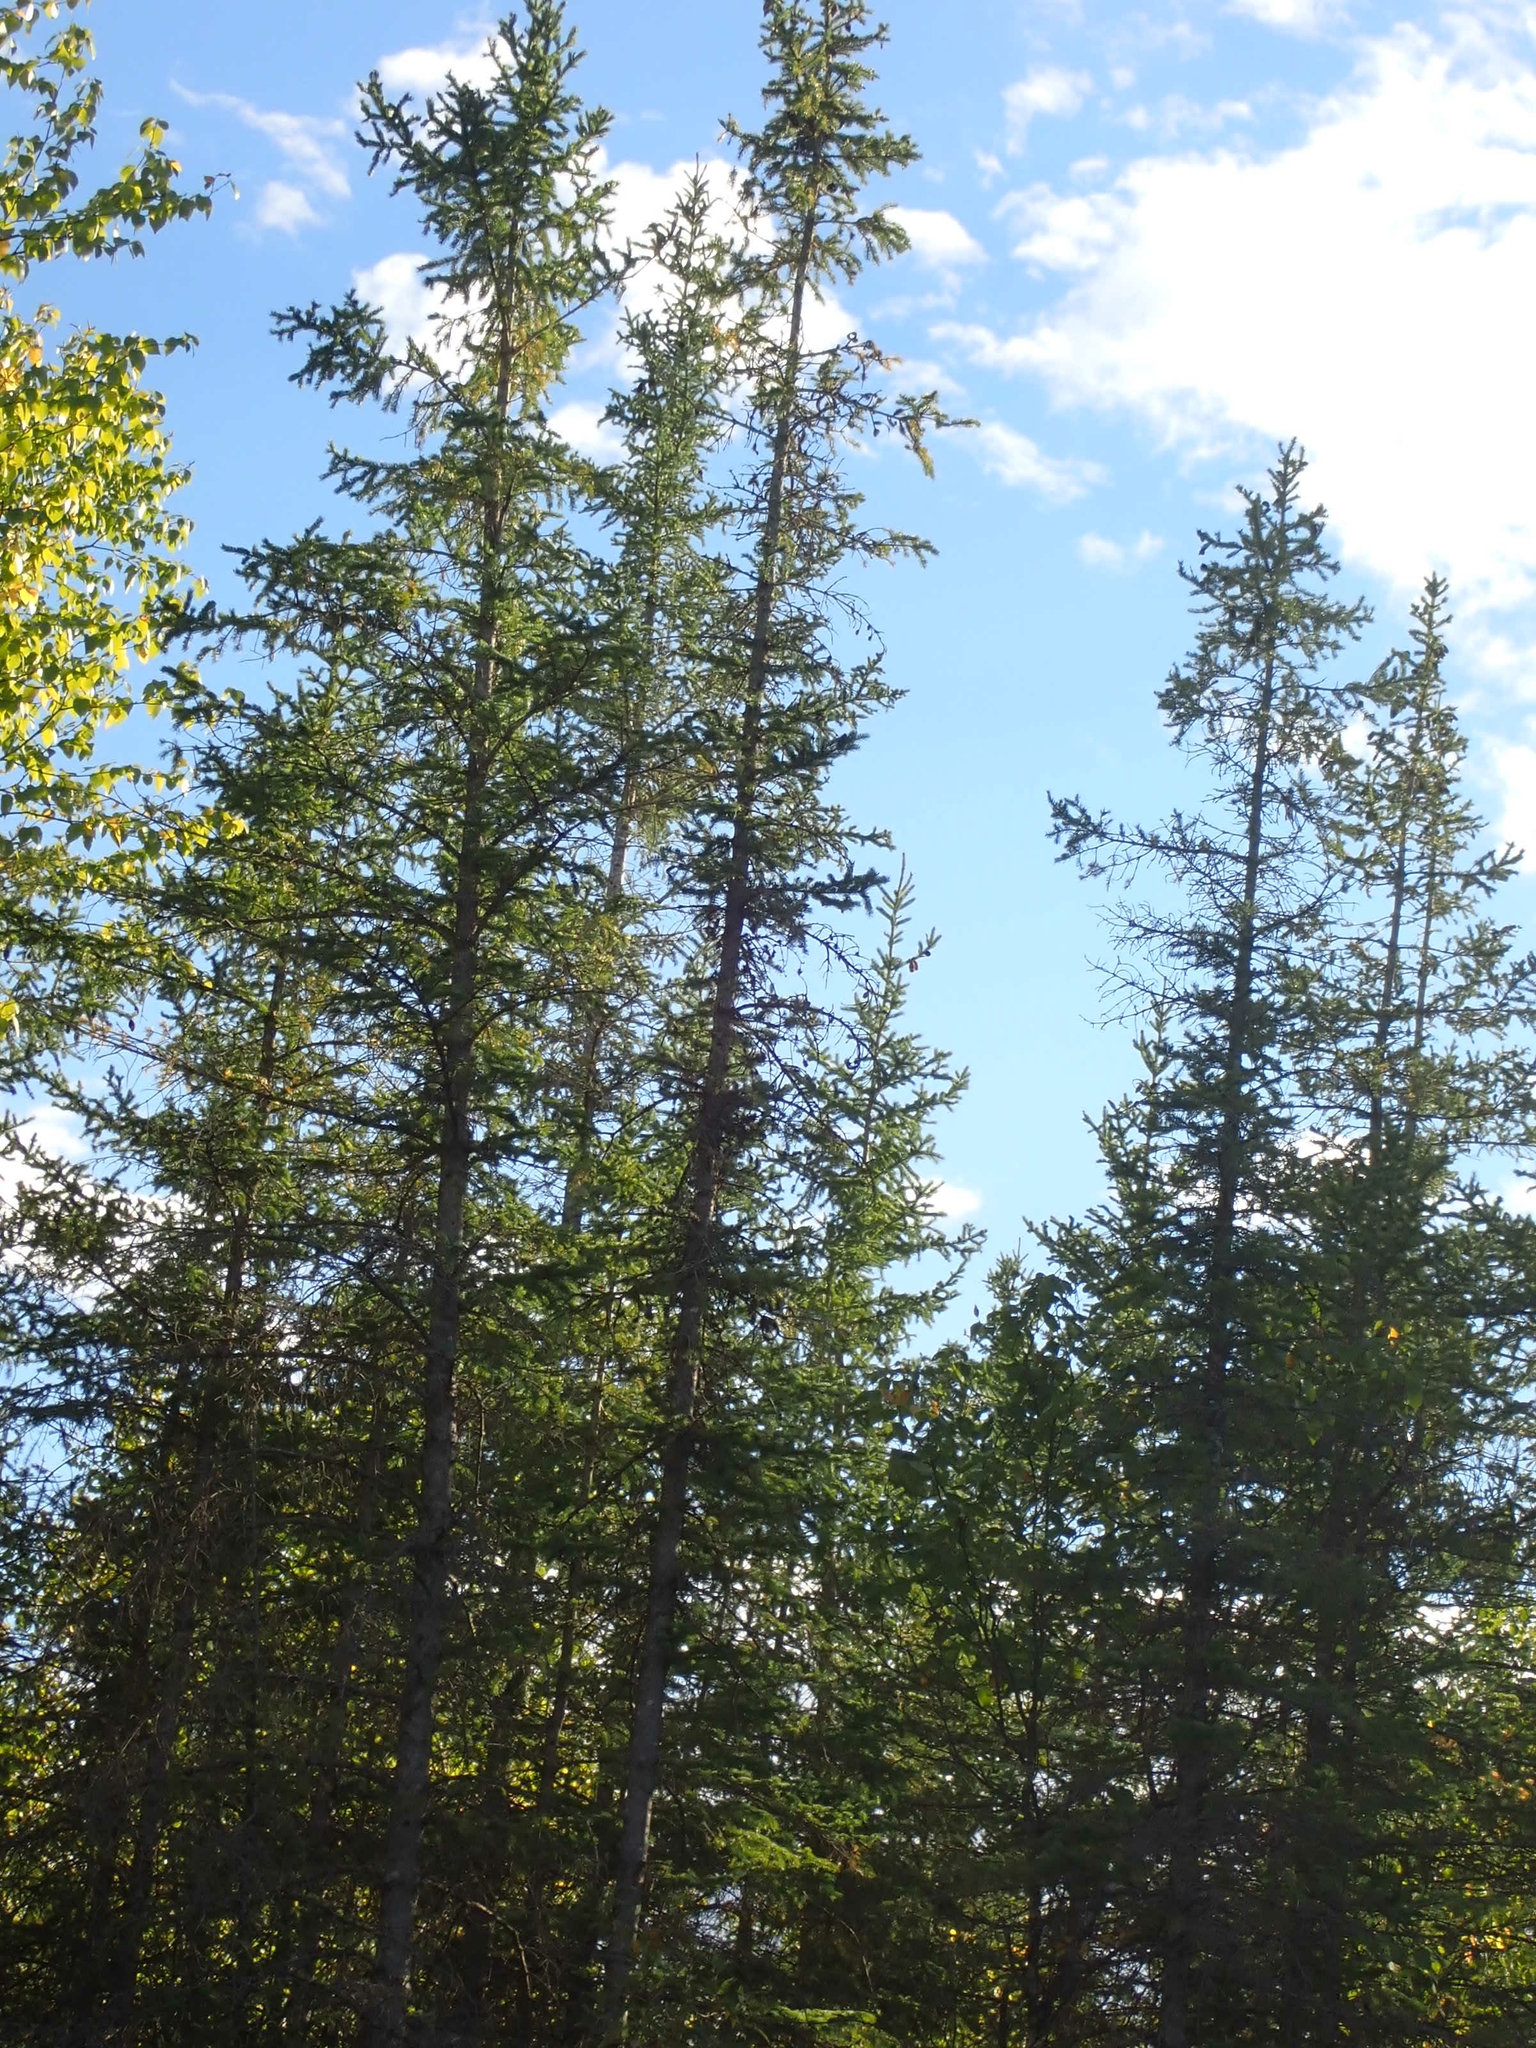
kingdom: Plantae
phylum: Tracheophyta
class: Pinopsida
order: Pinales
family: Pinaceae
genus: Picea
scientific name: Picea mariana
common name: Black spruce
